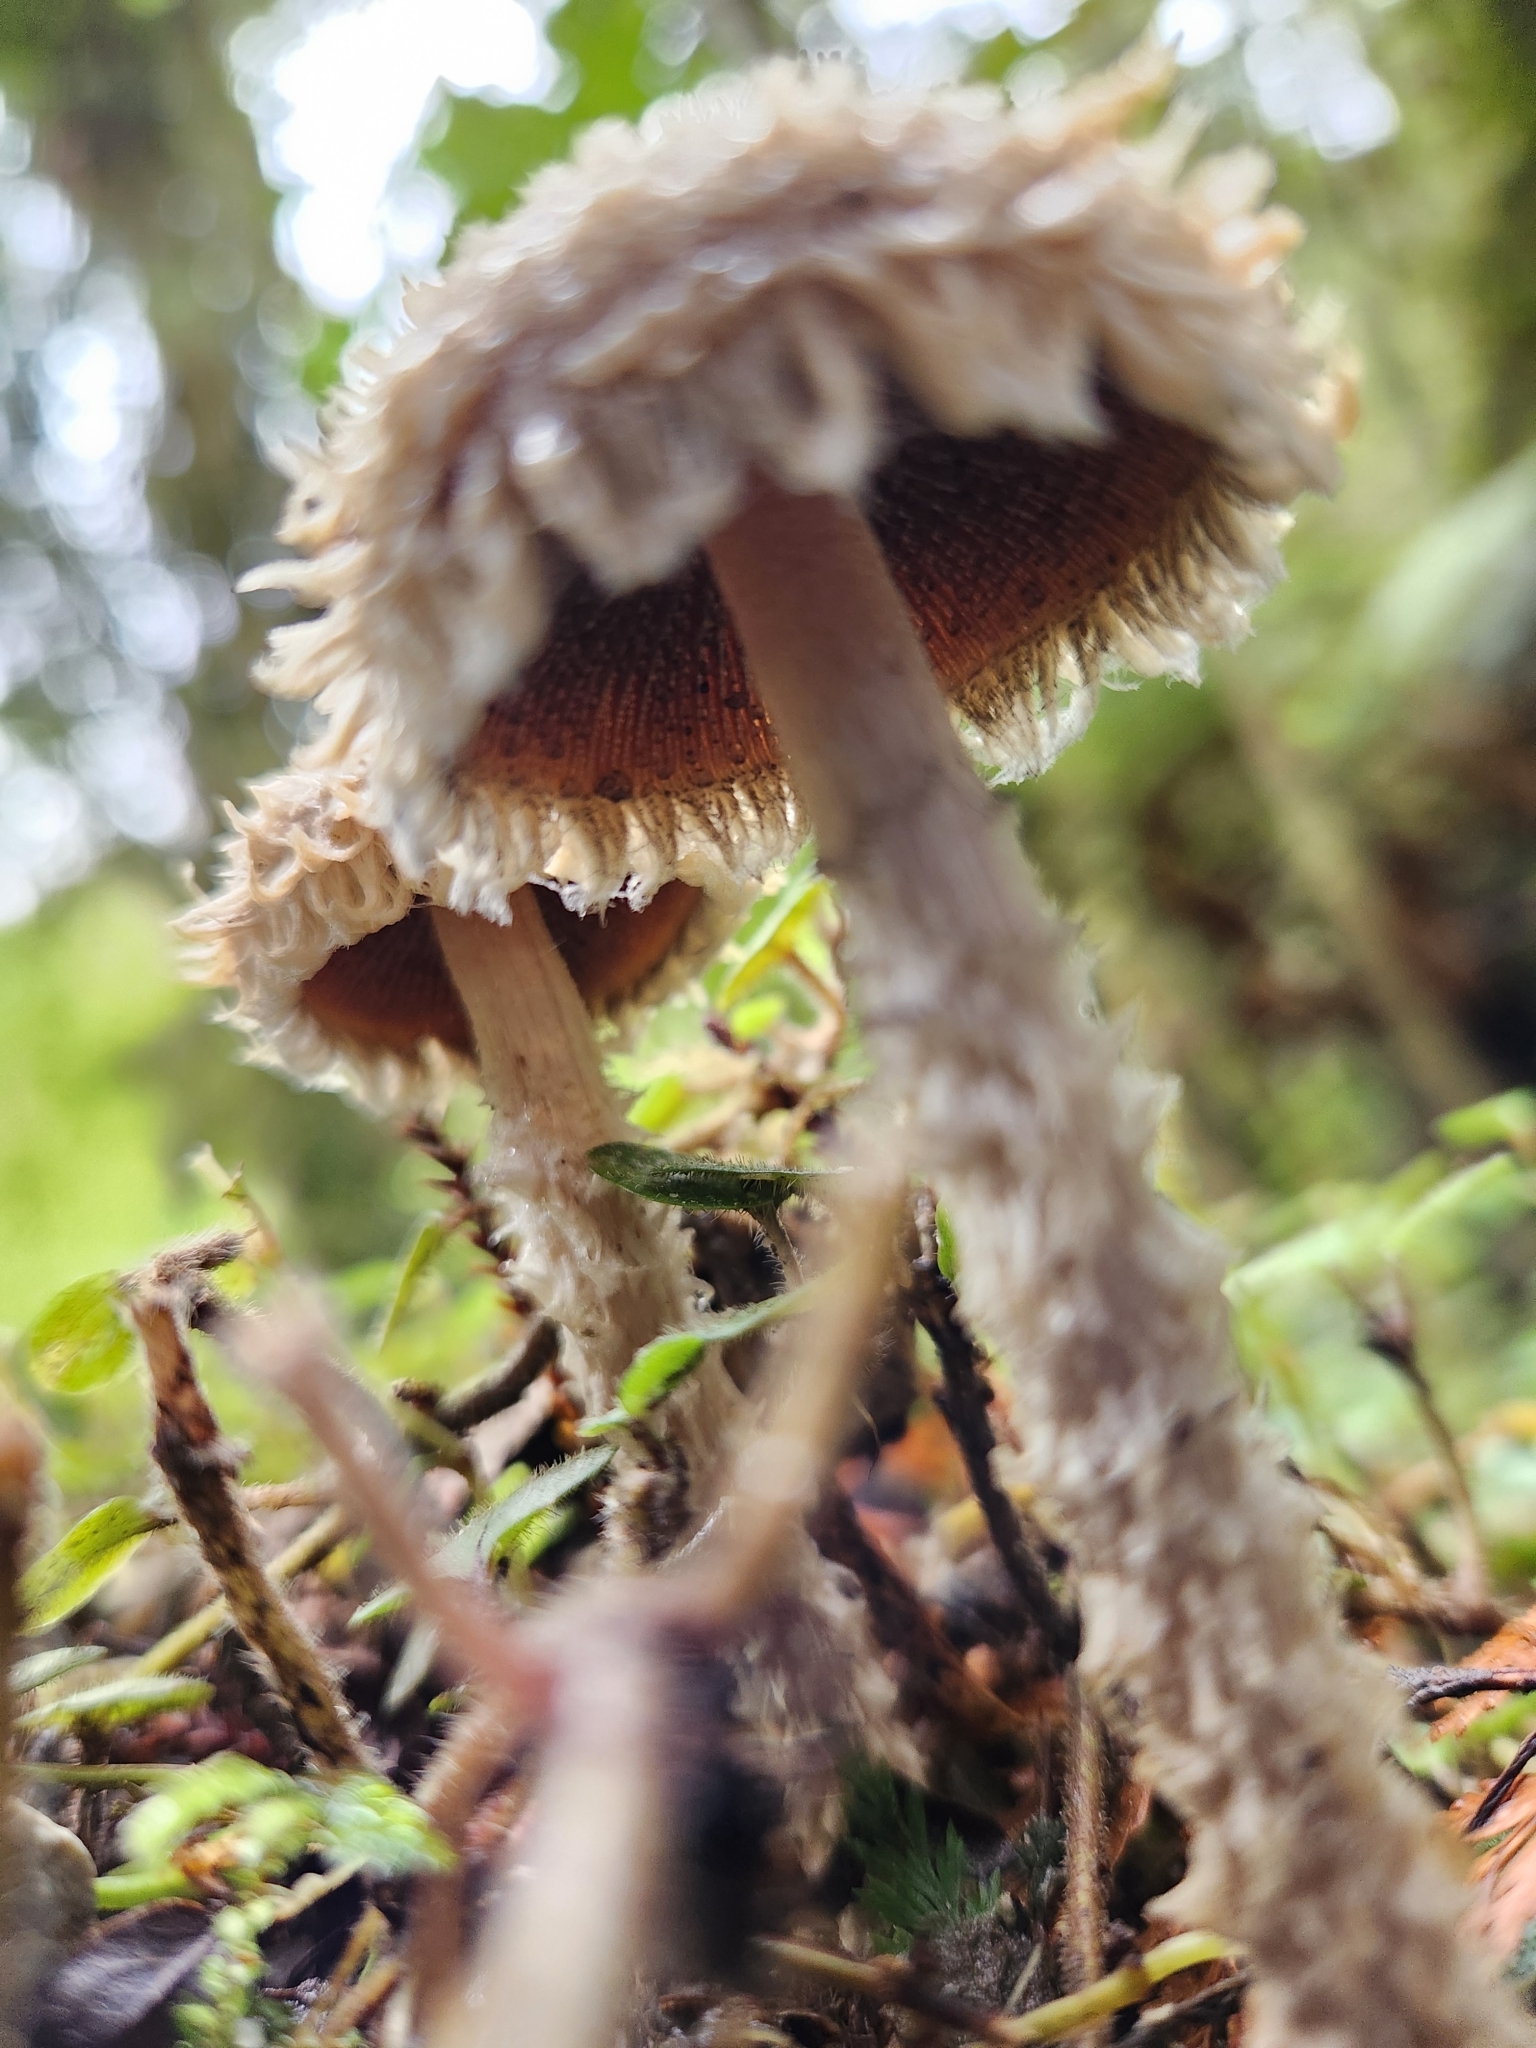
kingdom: Fungi
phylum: Basidiomycota
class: Agaricomycetes
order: Agaricales
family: Psathyrellaceae
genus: Psathyrella
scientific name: Psathyrella asperospora
